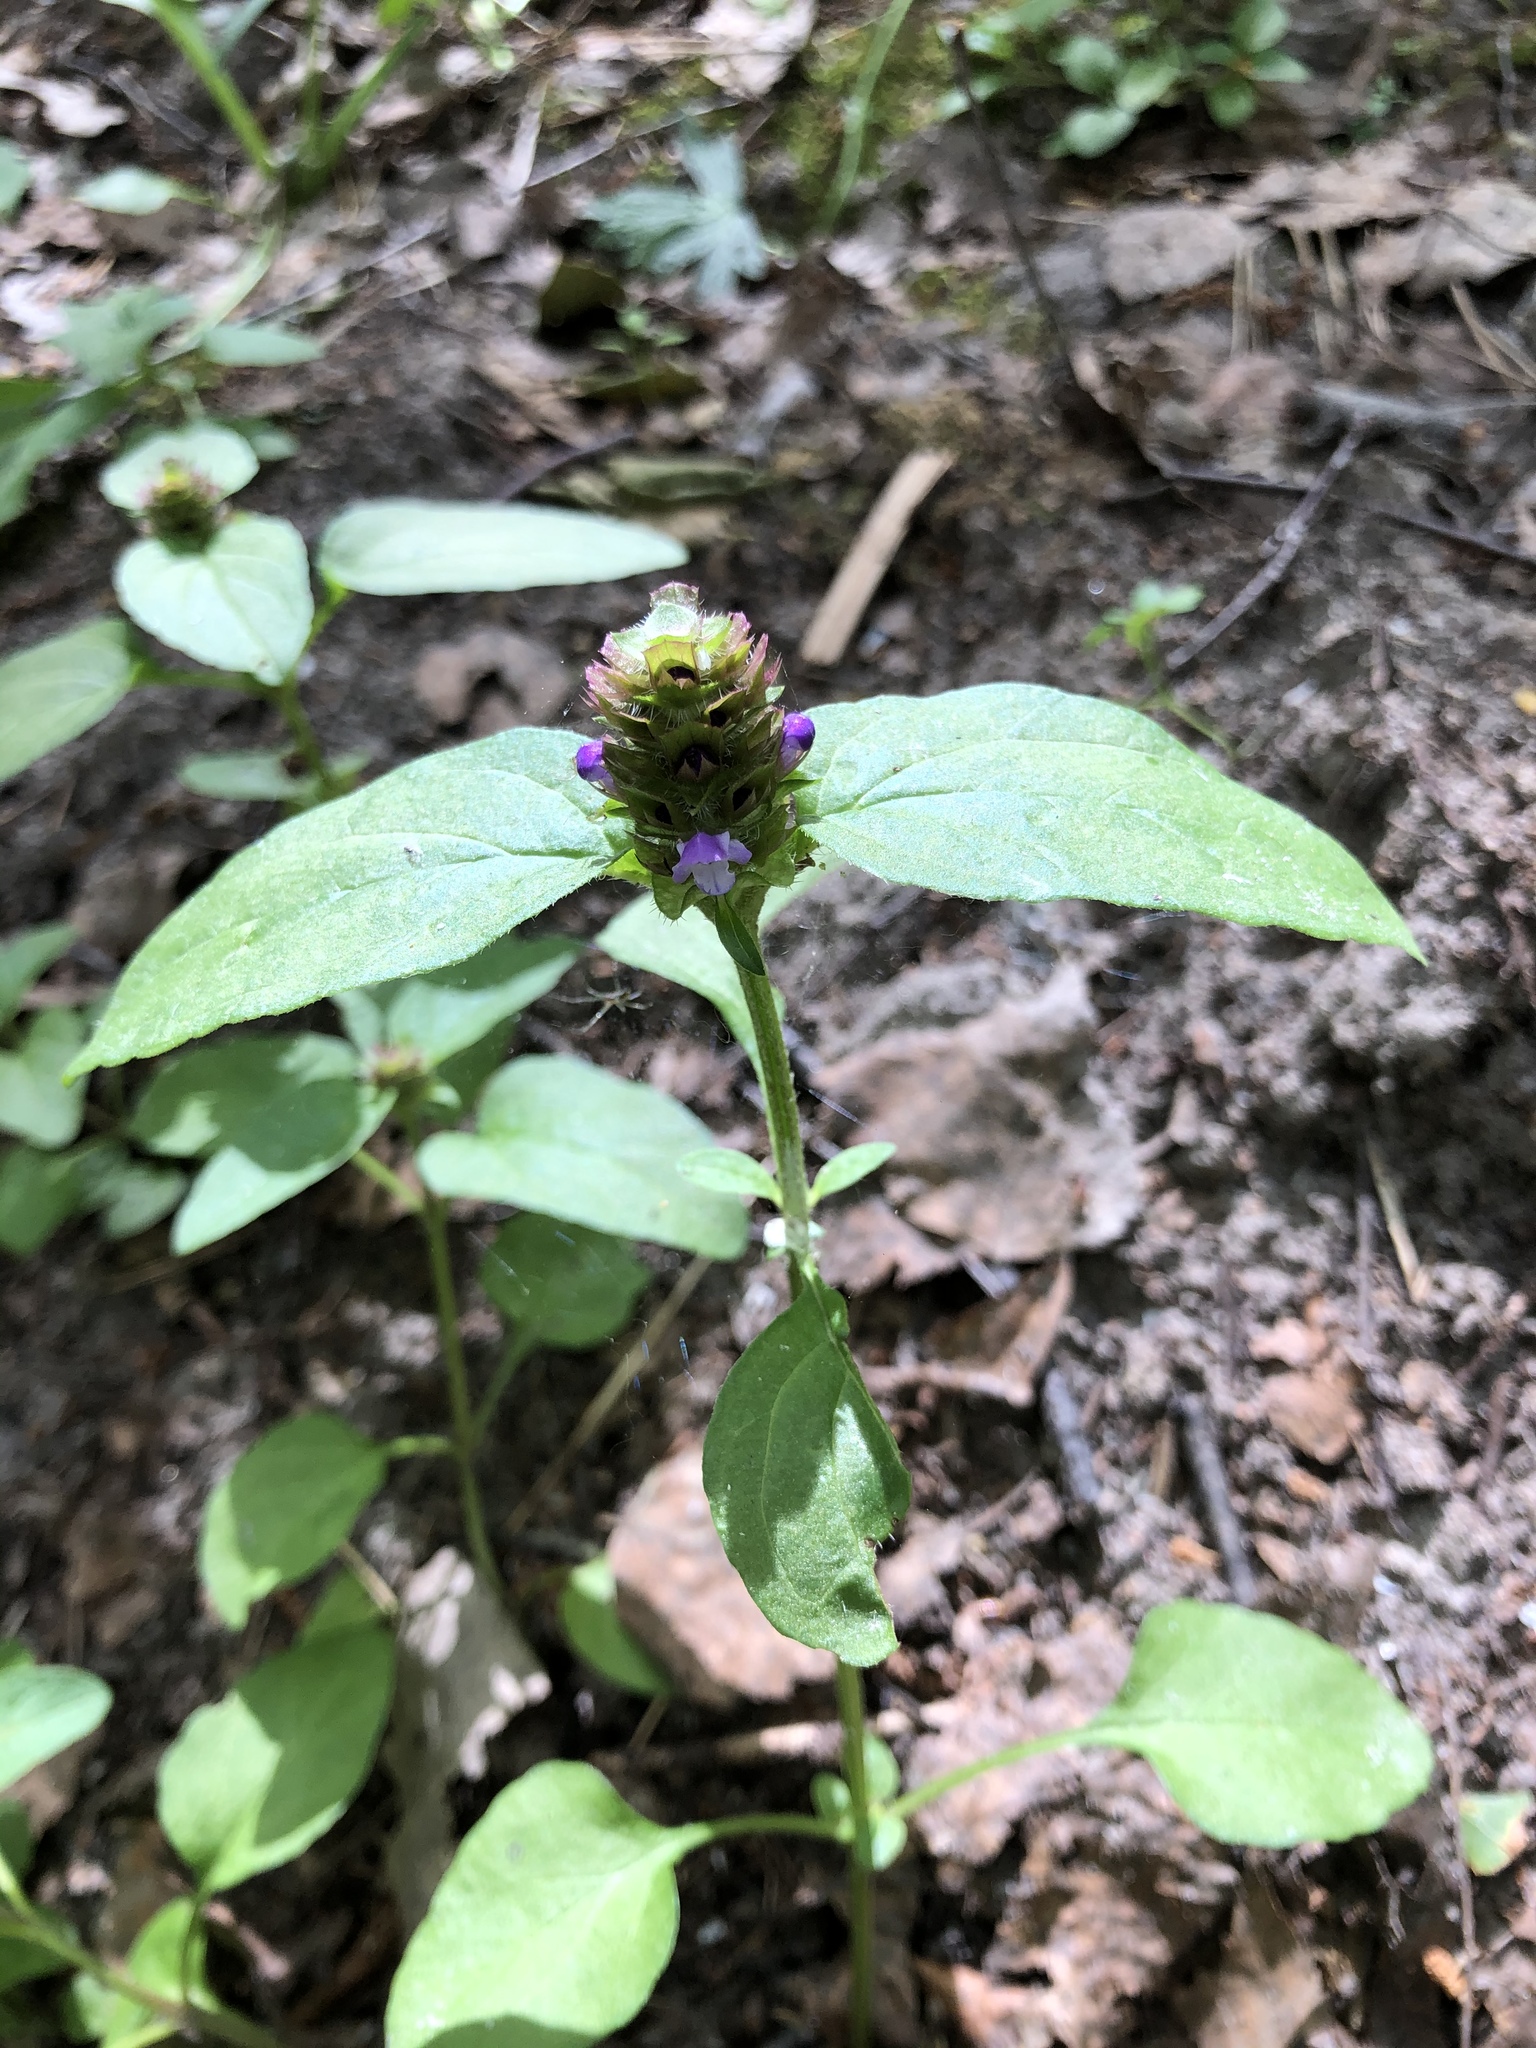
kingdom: Plantae
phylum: Tracheophyta
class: Magnoliopsida
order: Lamiales
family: Lamiaceae
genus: Prunella
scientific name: Prunella vulgaris
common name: Heal-all
